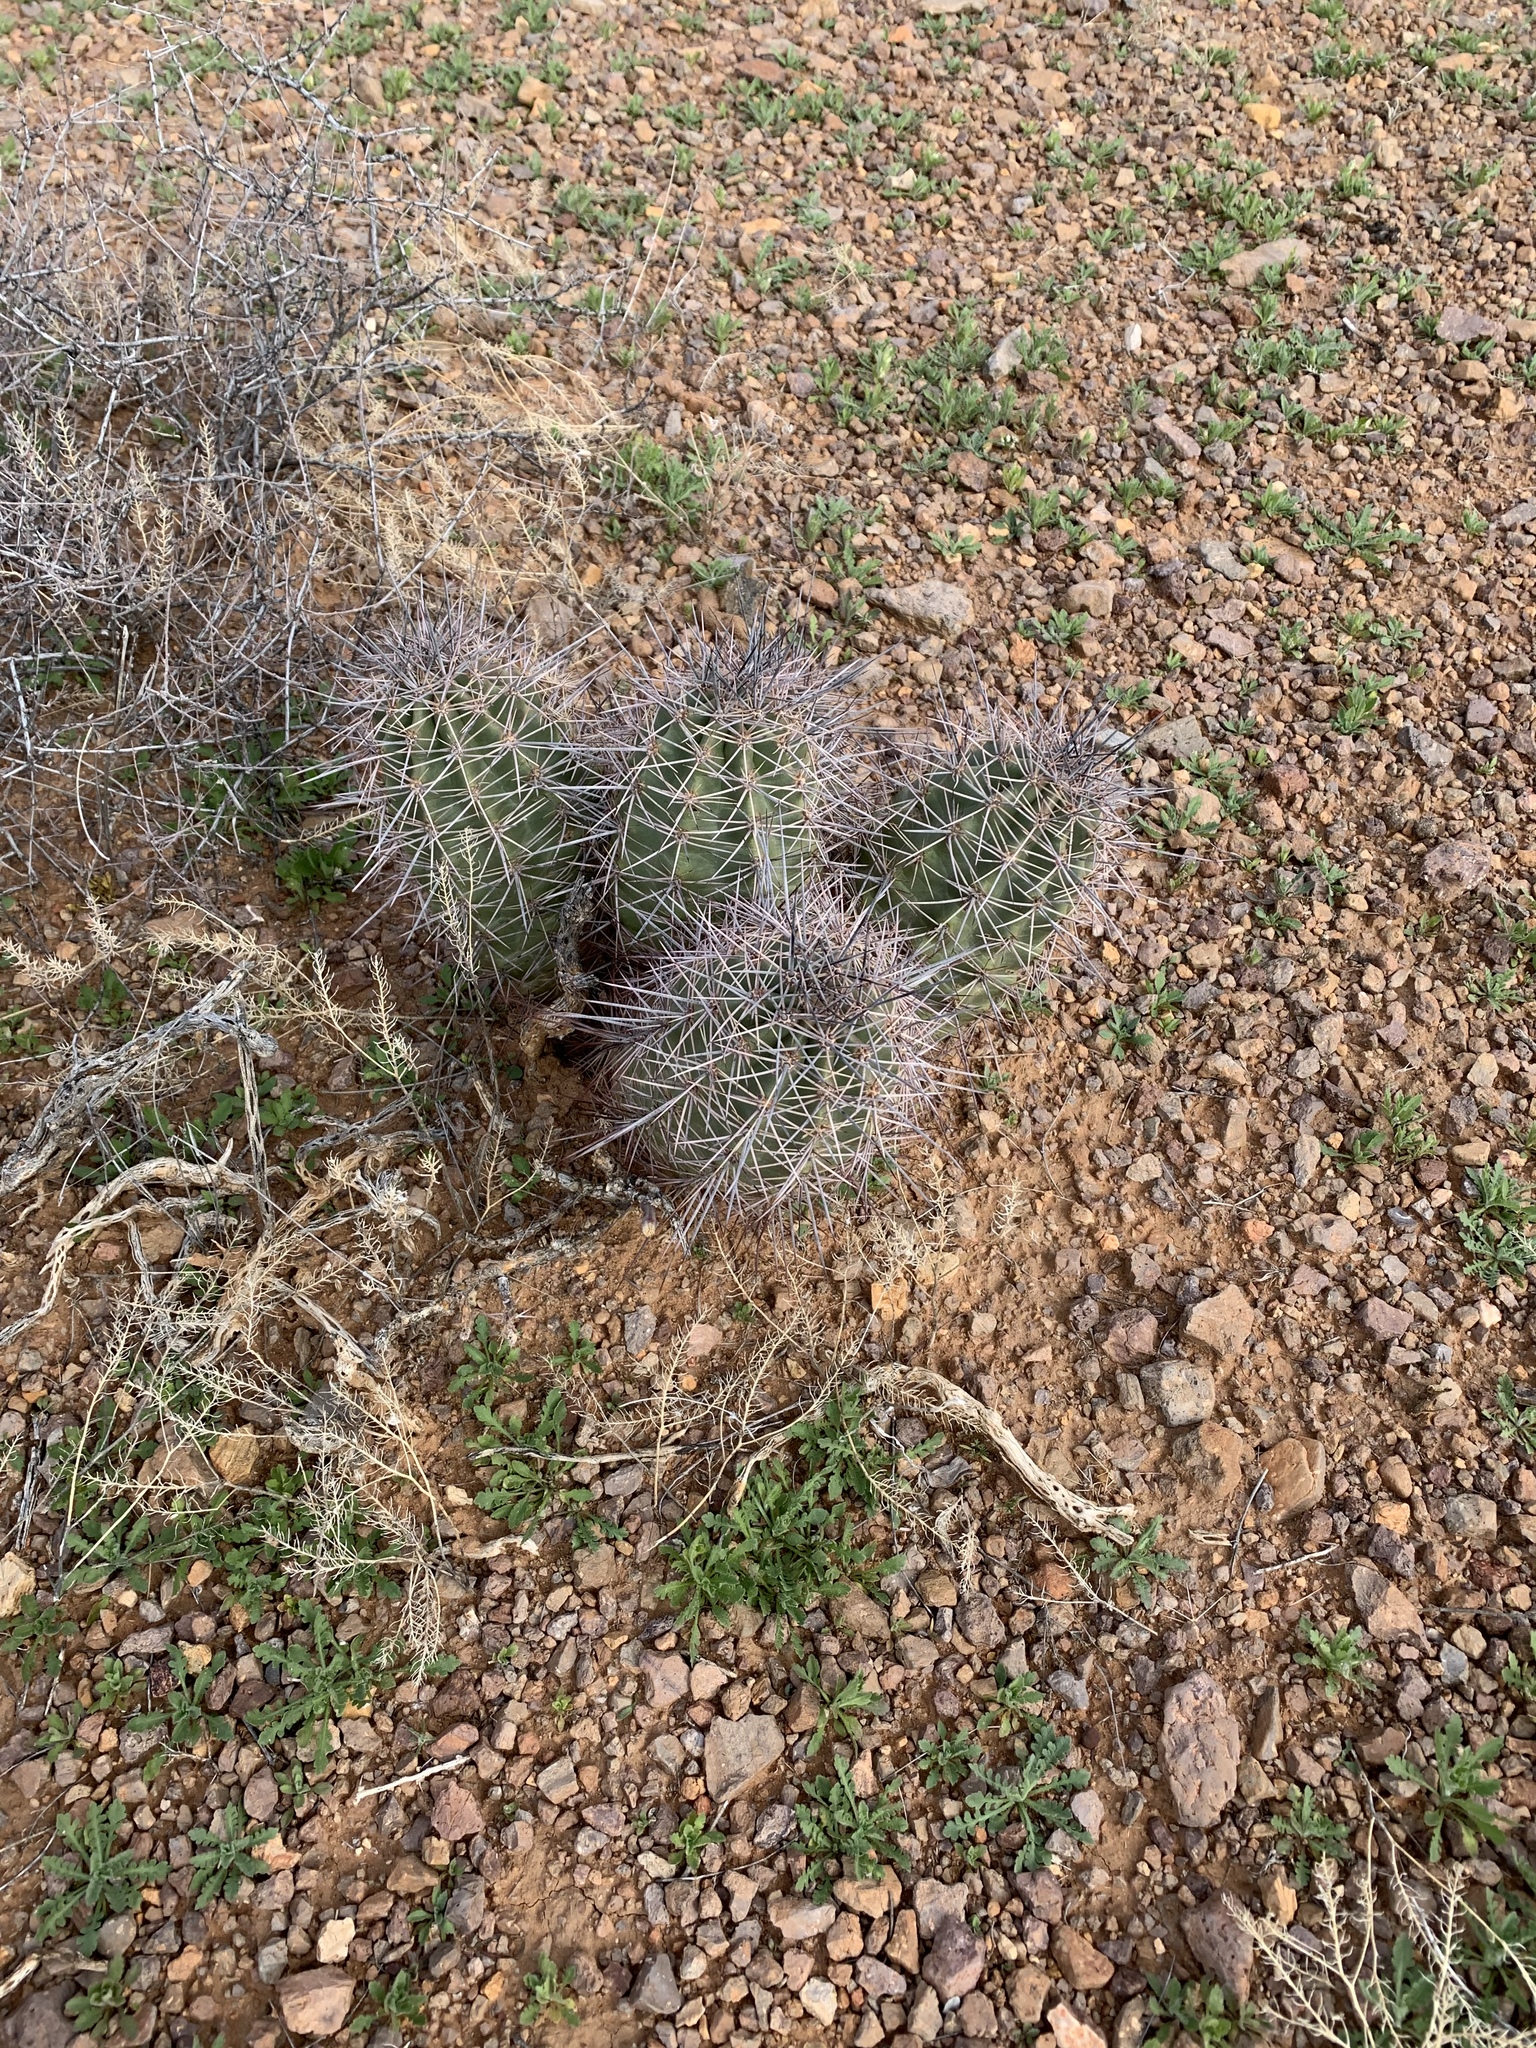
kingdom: Plantae
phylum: Tracheophyta
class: Magnoliopsida
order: Caryophyllales
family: Cactaceae
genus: Echinocereus
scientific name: Echinocereus coccineus
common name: Scarlet hedgehog cactus
